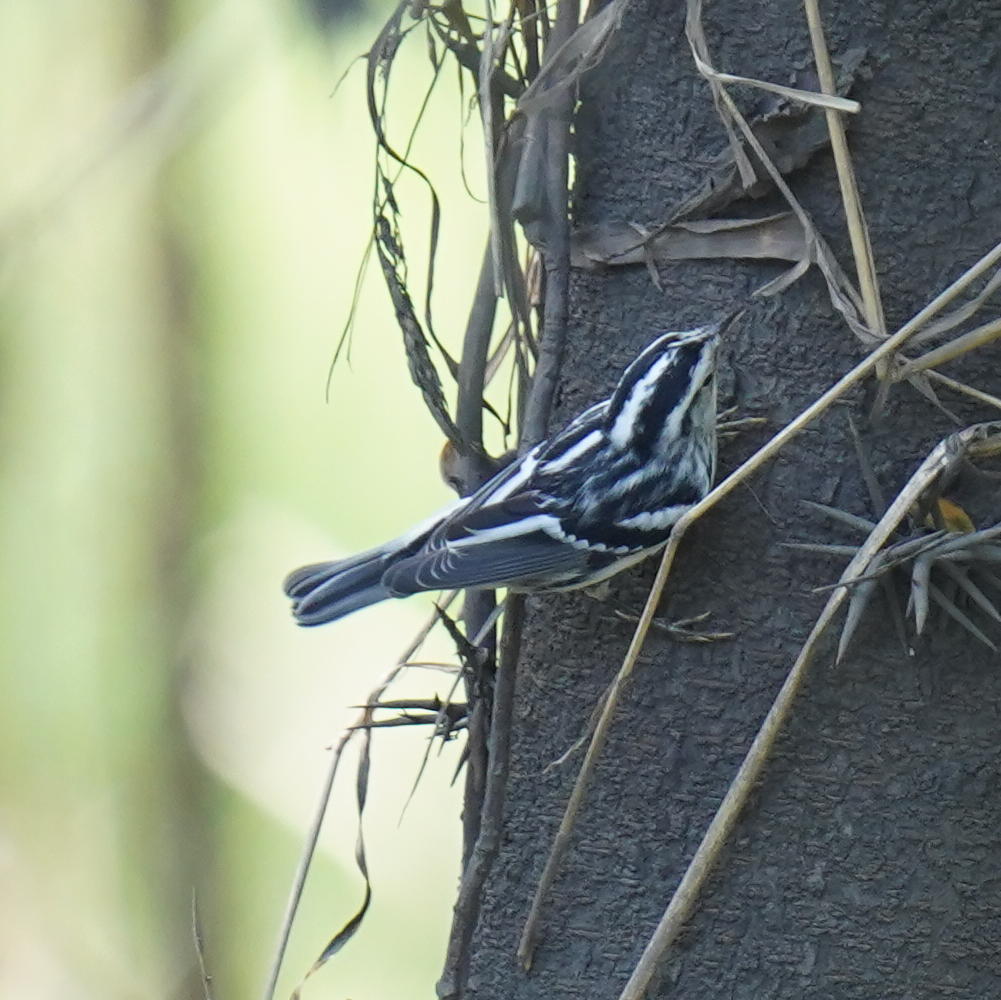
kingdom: Animalia
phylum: Chordata
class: Aves
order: Passeriformes
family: Parulidae
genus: Mniotilta
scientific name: Mniotilta varia
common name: Black-and-white warbler
